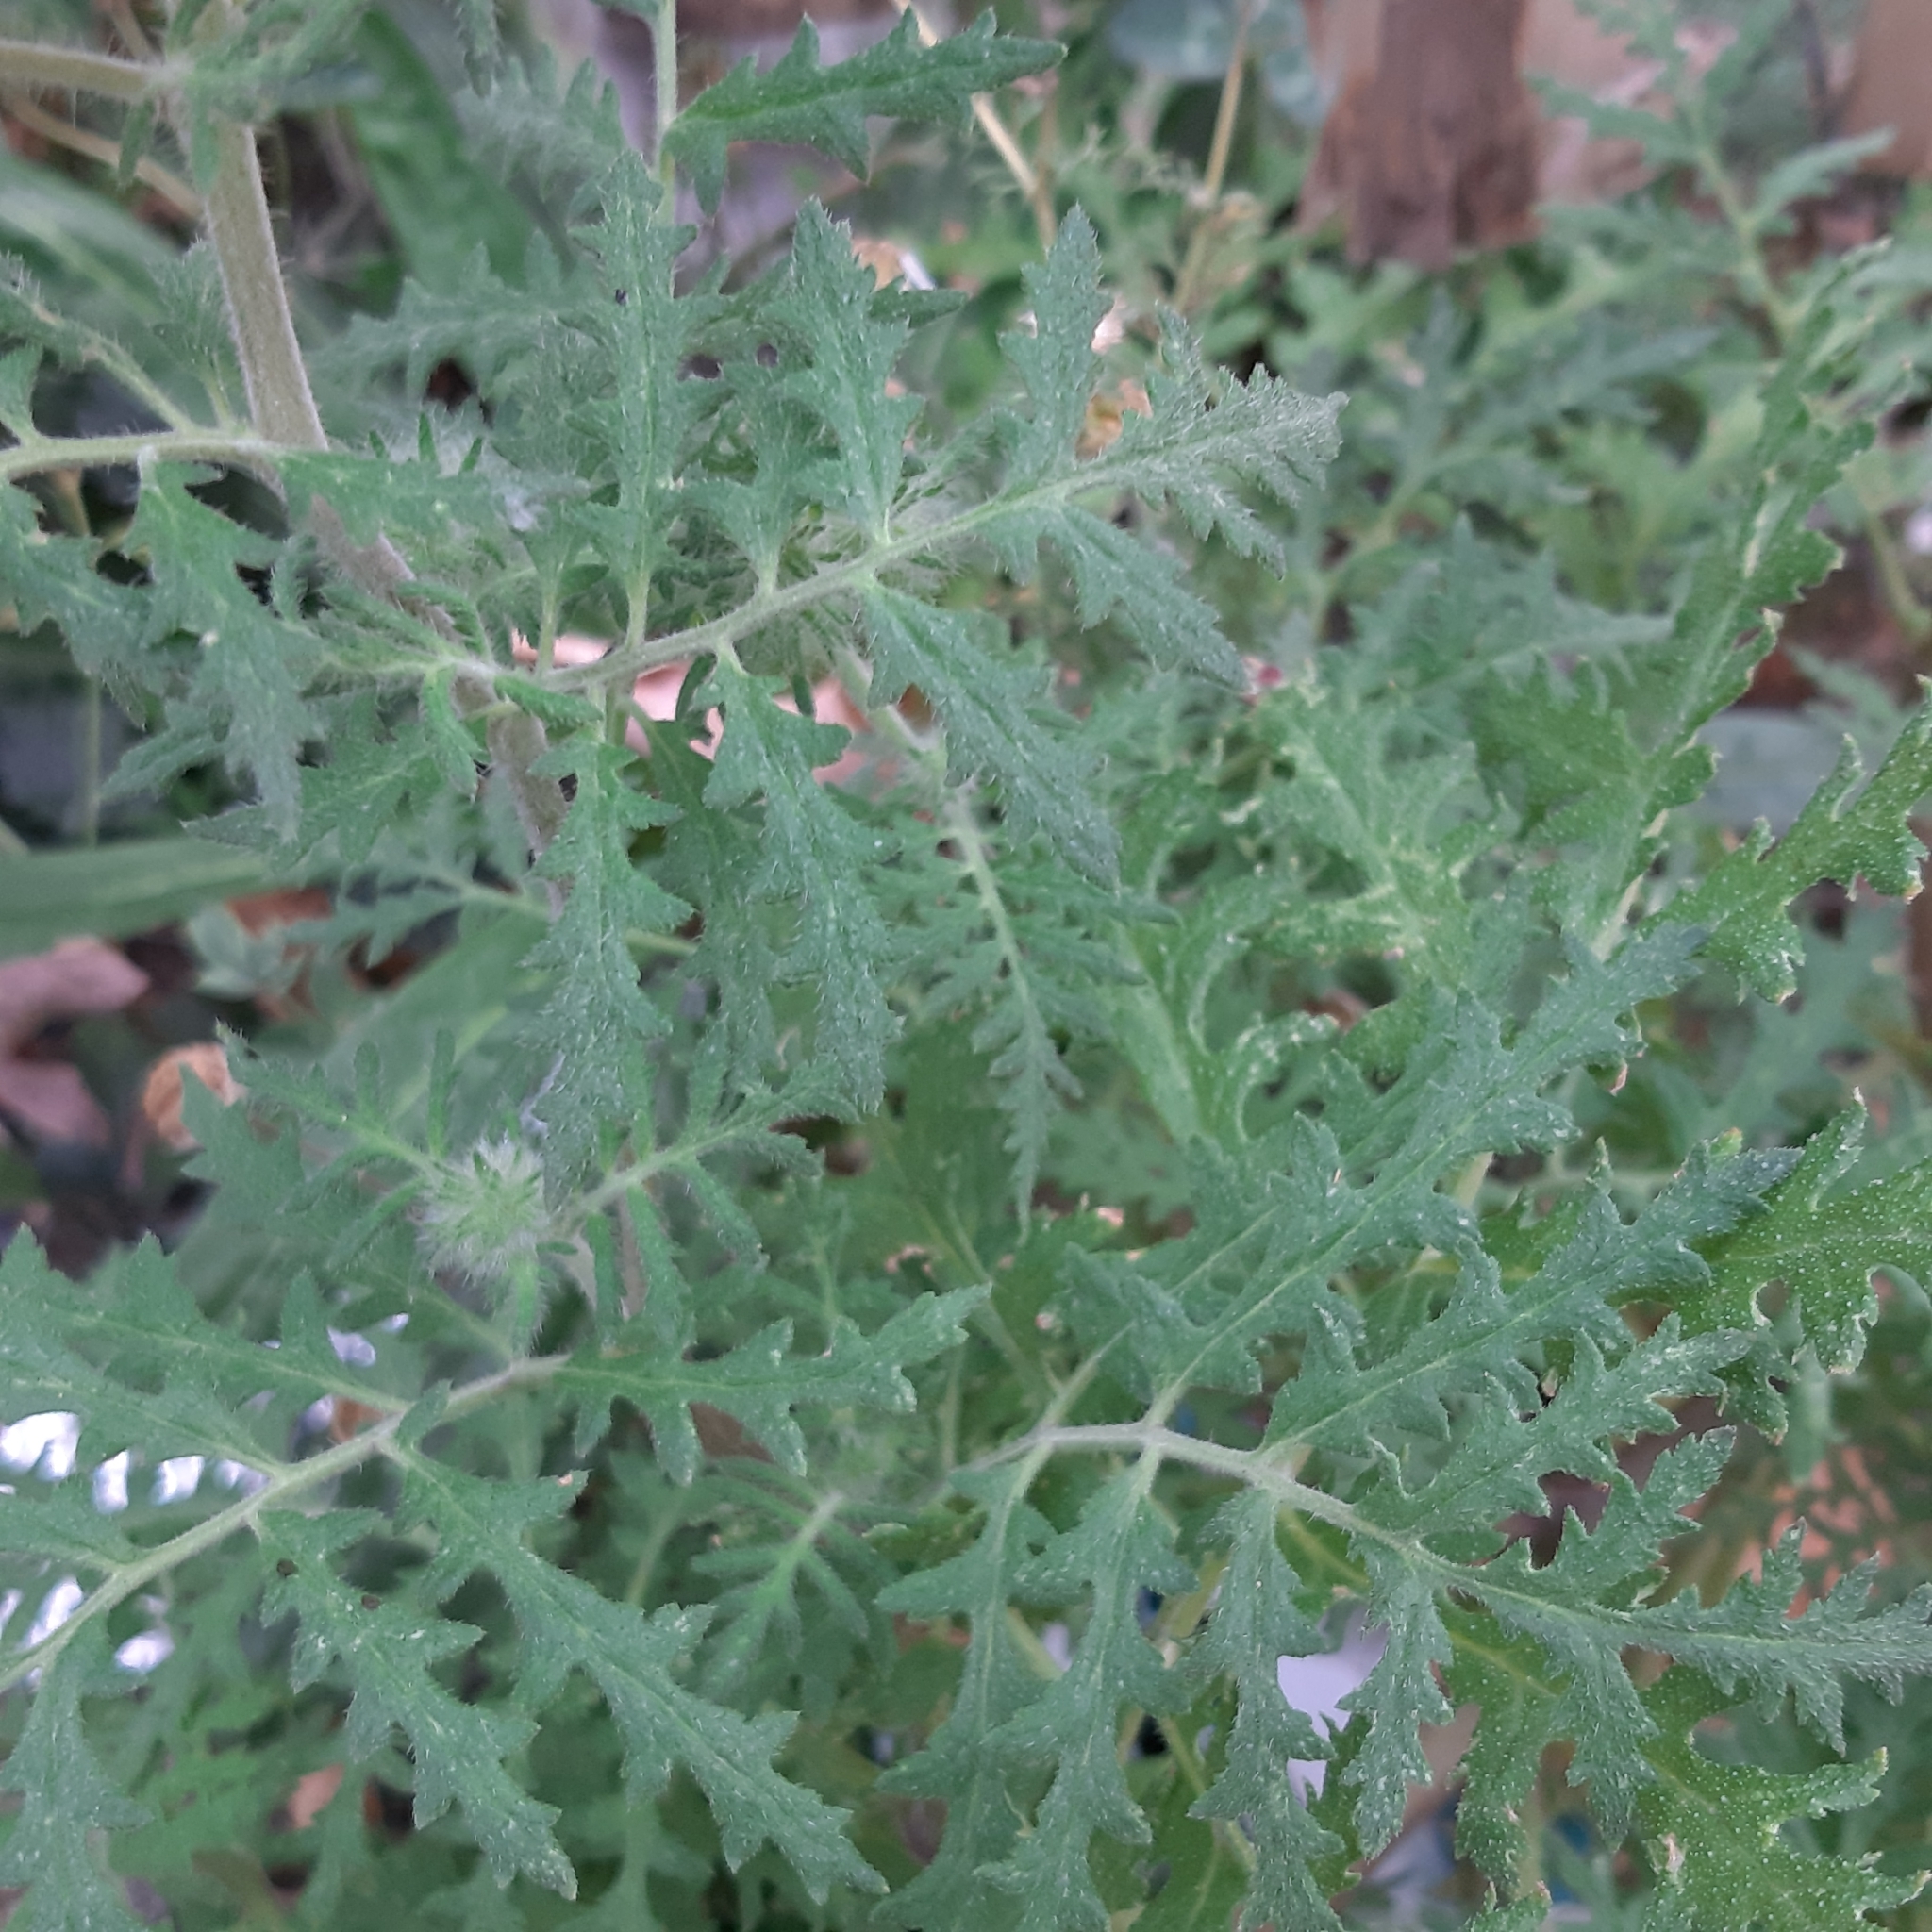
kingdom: Plantae
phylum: Tracheophyta
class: Magnoliopsida
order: Boraginales
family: Hydrophyllaceae
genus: Phacelia
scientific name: Phacelia tanacetifolia
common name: Phacelia
